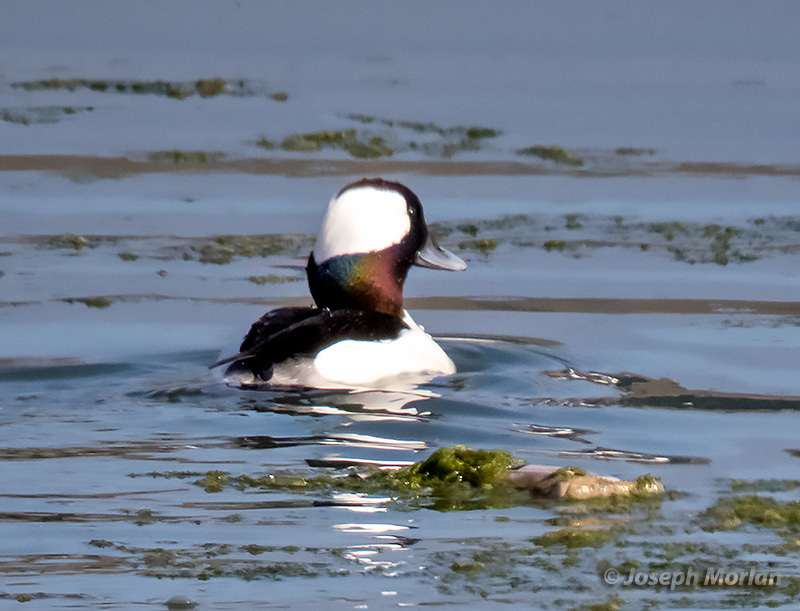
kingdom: Animalia
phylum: Chordata
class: Aves
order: Anseriformes
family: Anatidae
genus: Bucephala
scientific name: Bucephala albeola
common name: Bufflehead
